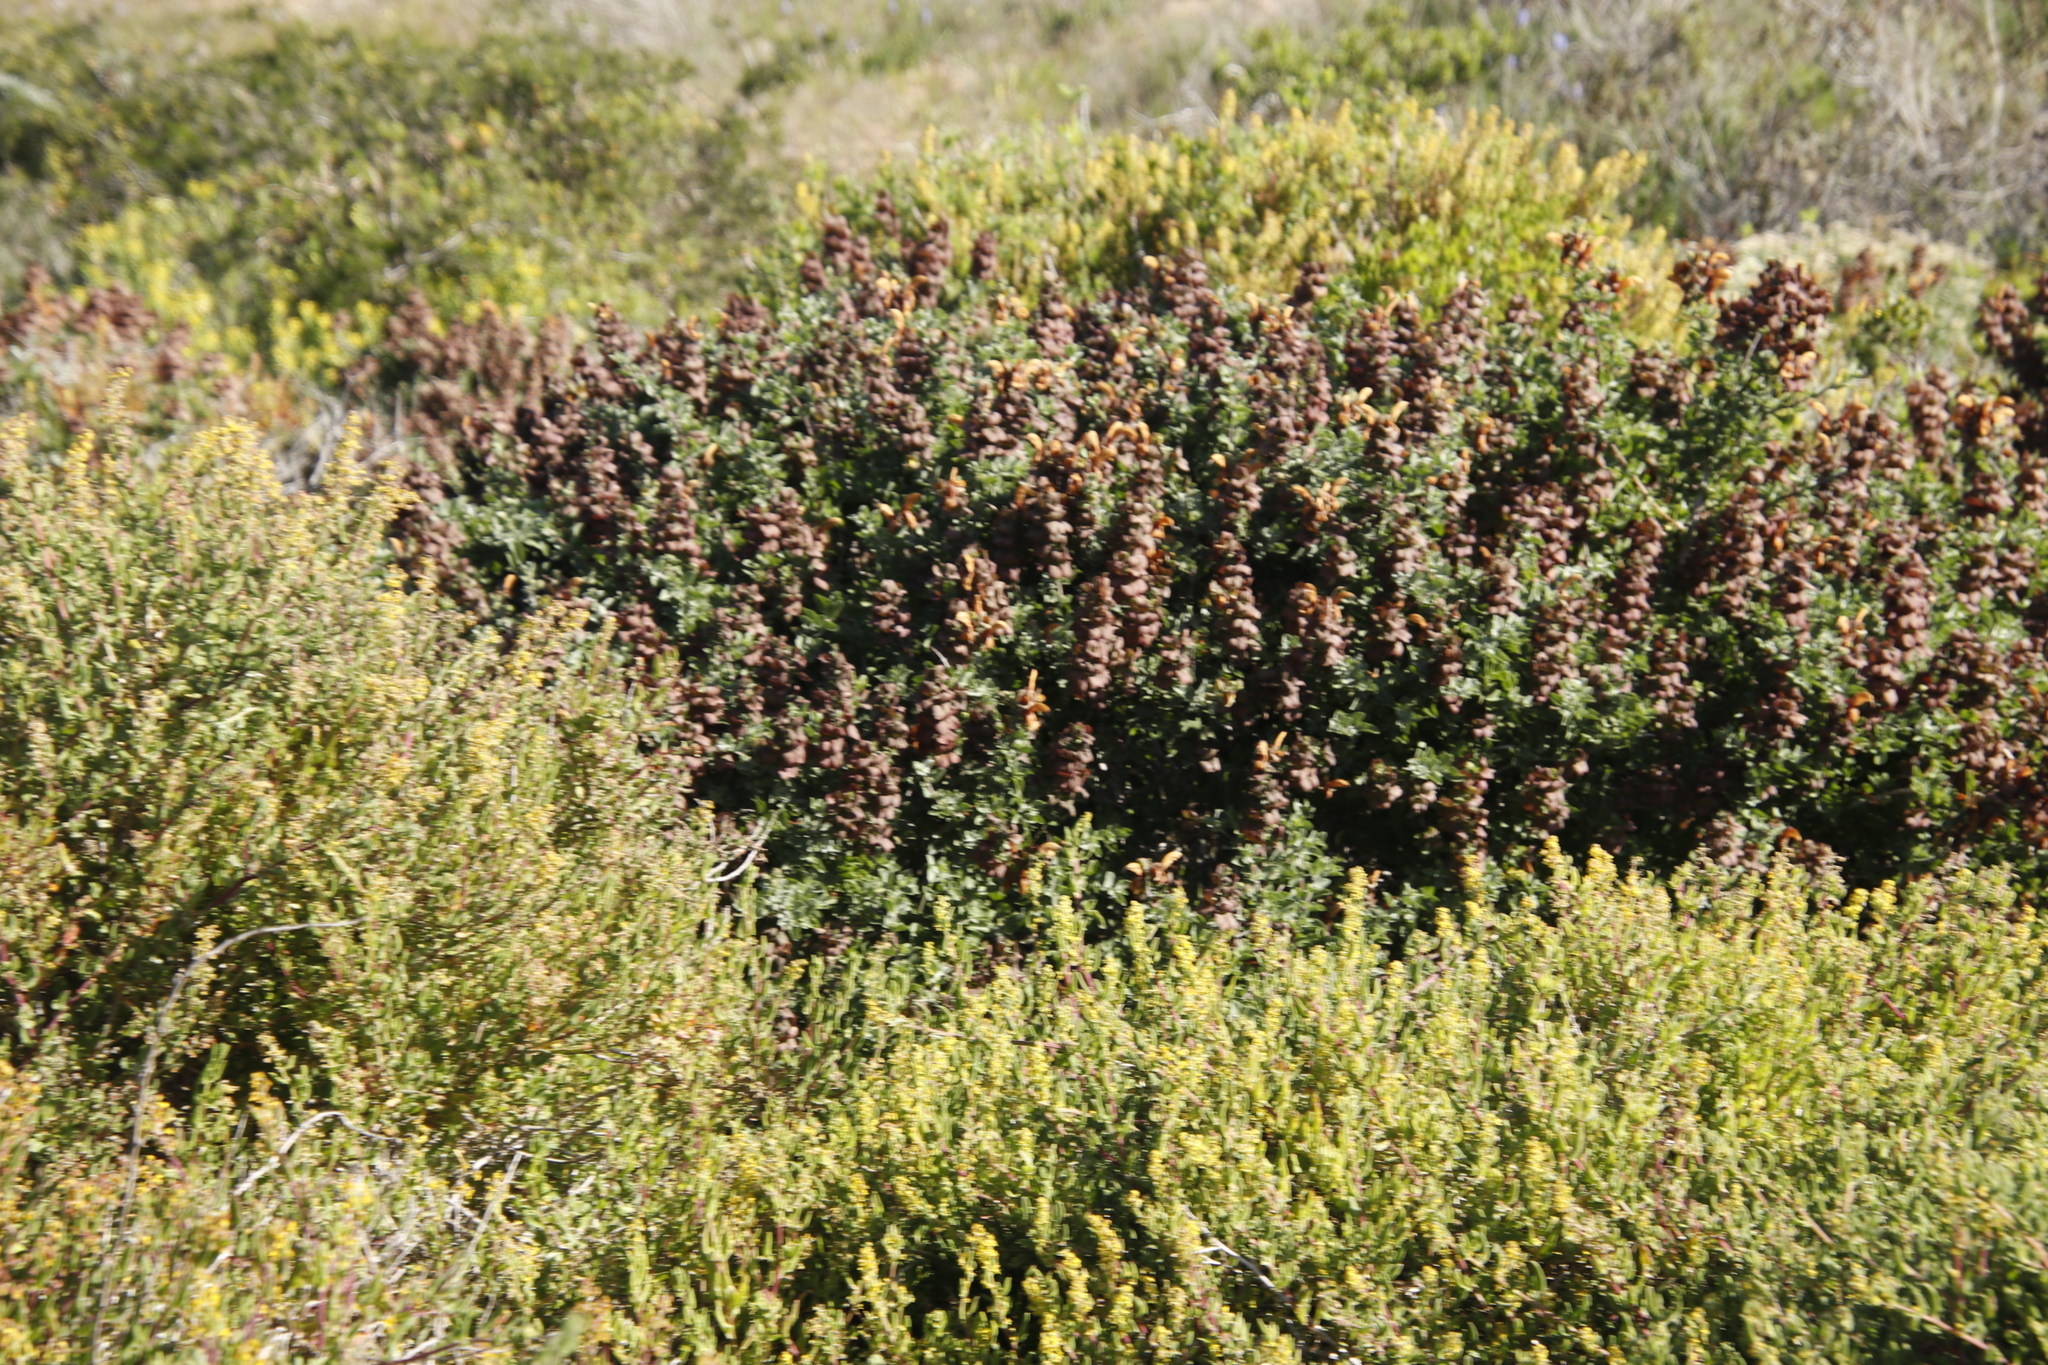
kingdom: Plantae
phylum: Tracheophyta
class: Magnoliopsida
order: Lamiales
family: Lamiaceae
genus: Salvia
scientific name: Salvia aurea
